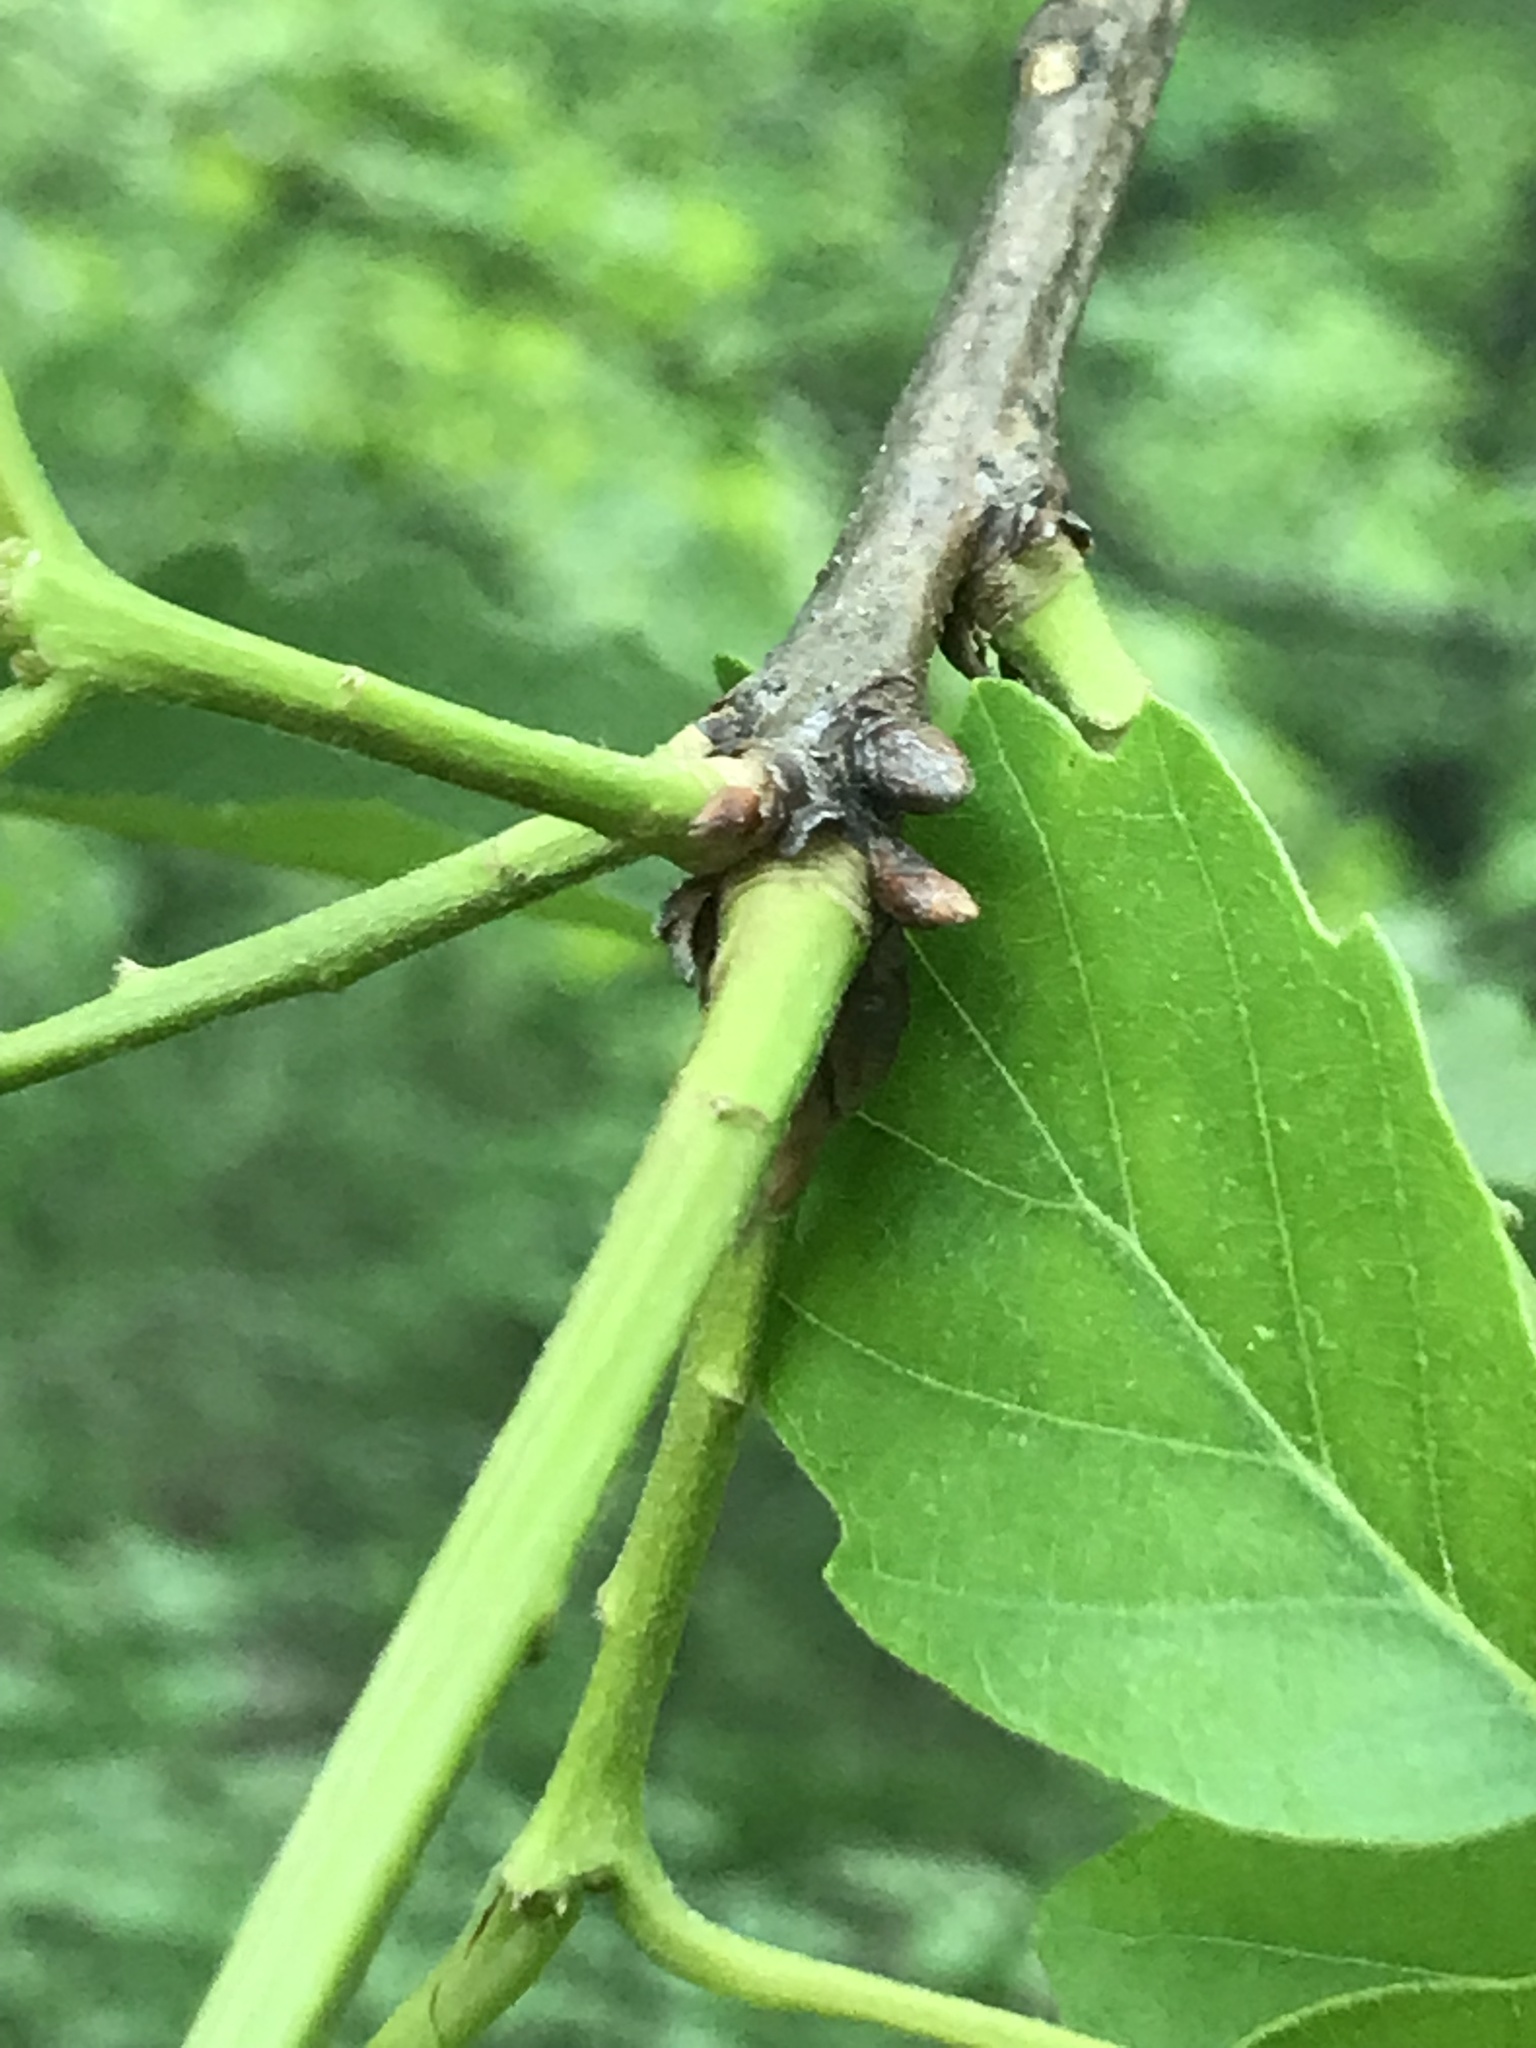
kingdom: Plantae
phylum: Tracheophyta
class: Magnoliopsida
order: Fagales
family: Fagaceae
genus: Quercus
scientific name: Quercus montana
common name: Chestnut oak
